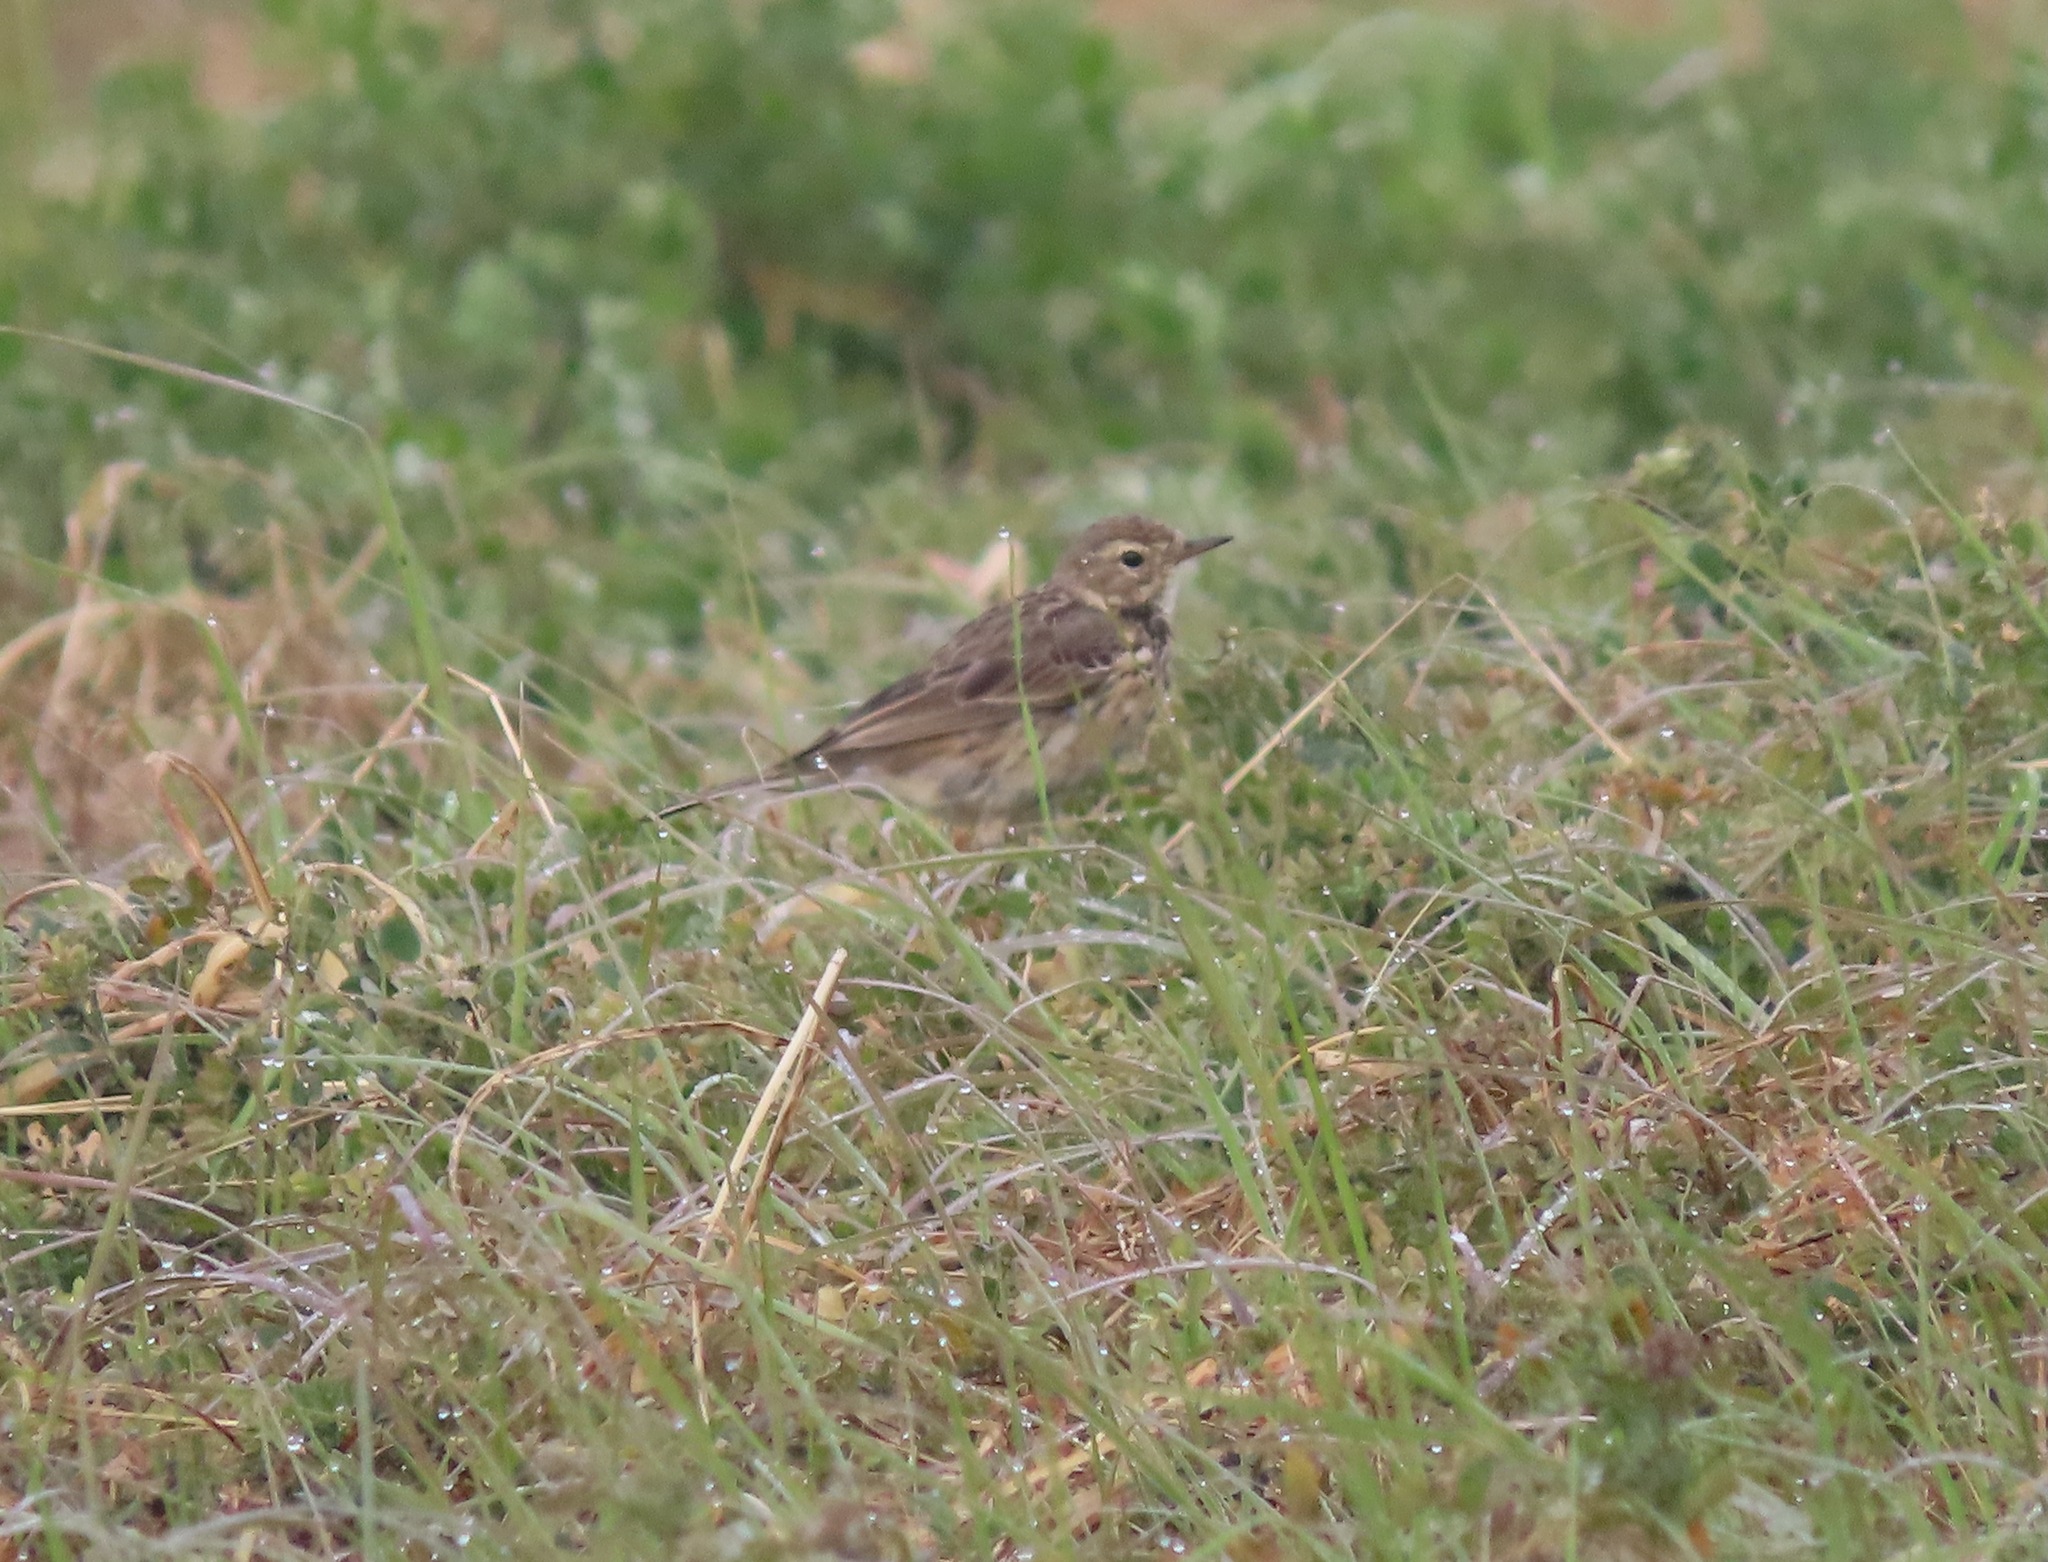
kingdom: Animalia
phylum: Chordata
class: Aves
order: Passeriformes
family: Motacillidae
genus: Anthus
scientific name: Anthus rubescens
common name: Buff-bellied pipit
